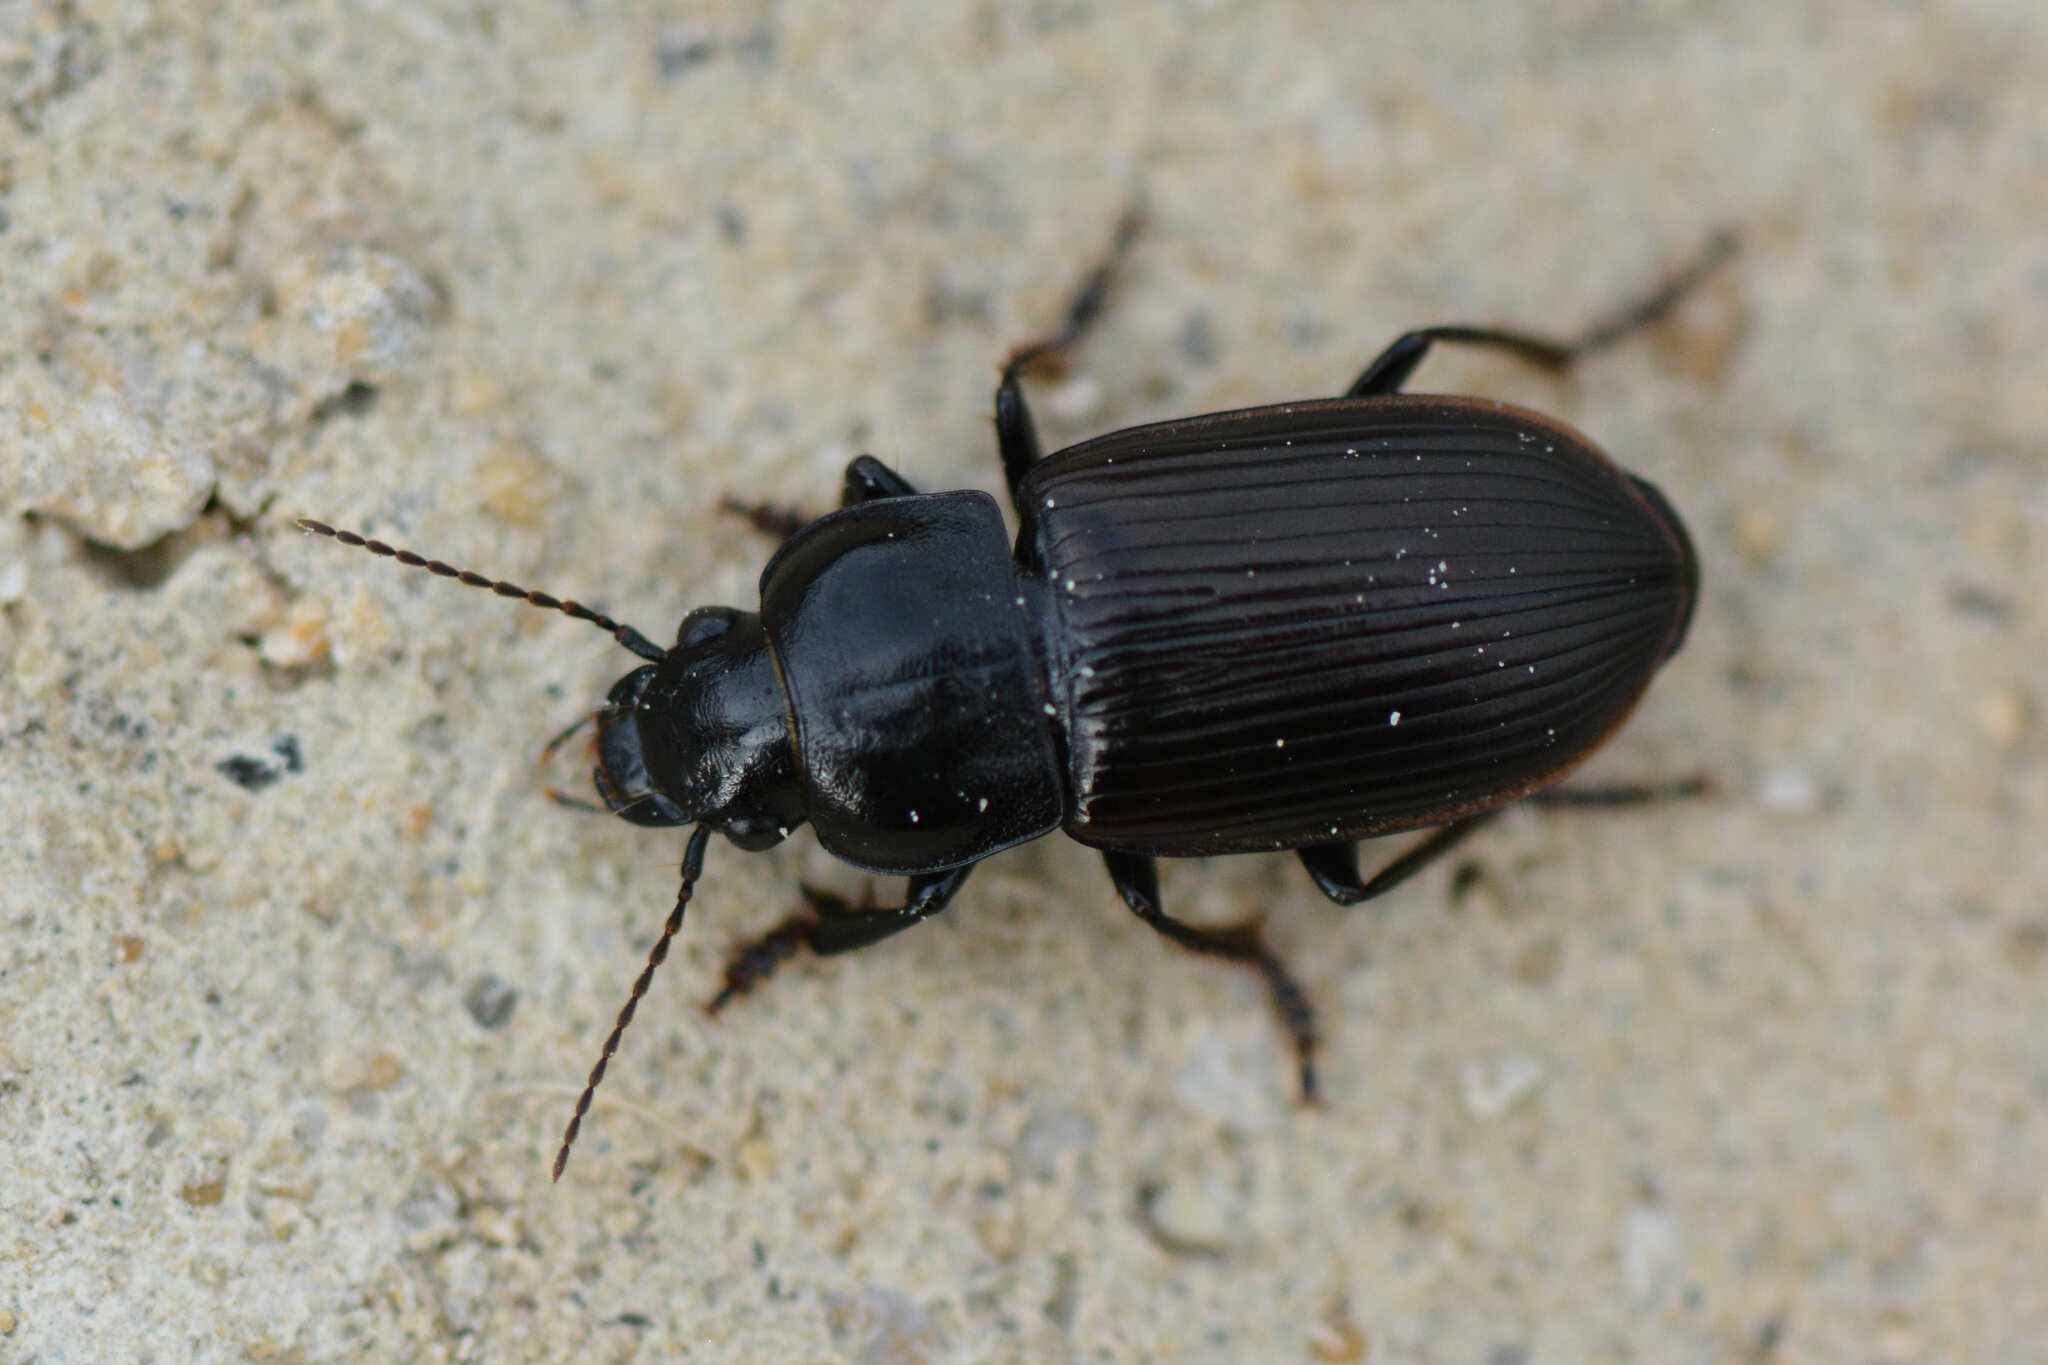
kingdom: Animalia
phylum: Arthropoda
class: Insecta
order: Coleoptera
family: Carabidae
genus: Anisodactylus
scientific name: Anisodactylus signatus
